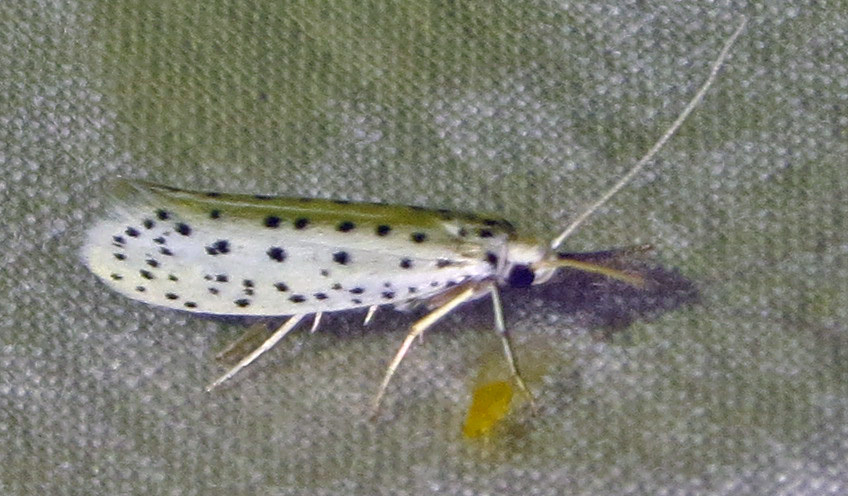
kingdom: Animalia
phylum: Arthropoda
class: Insecta
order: Lepidoptera
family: Yponomeutidae
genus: Yponomeuta
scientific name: Yponomeuta multipunctella
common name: American ermine moth
